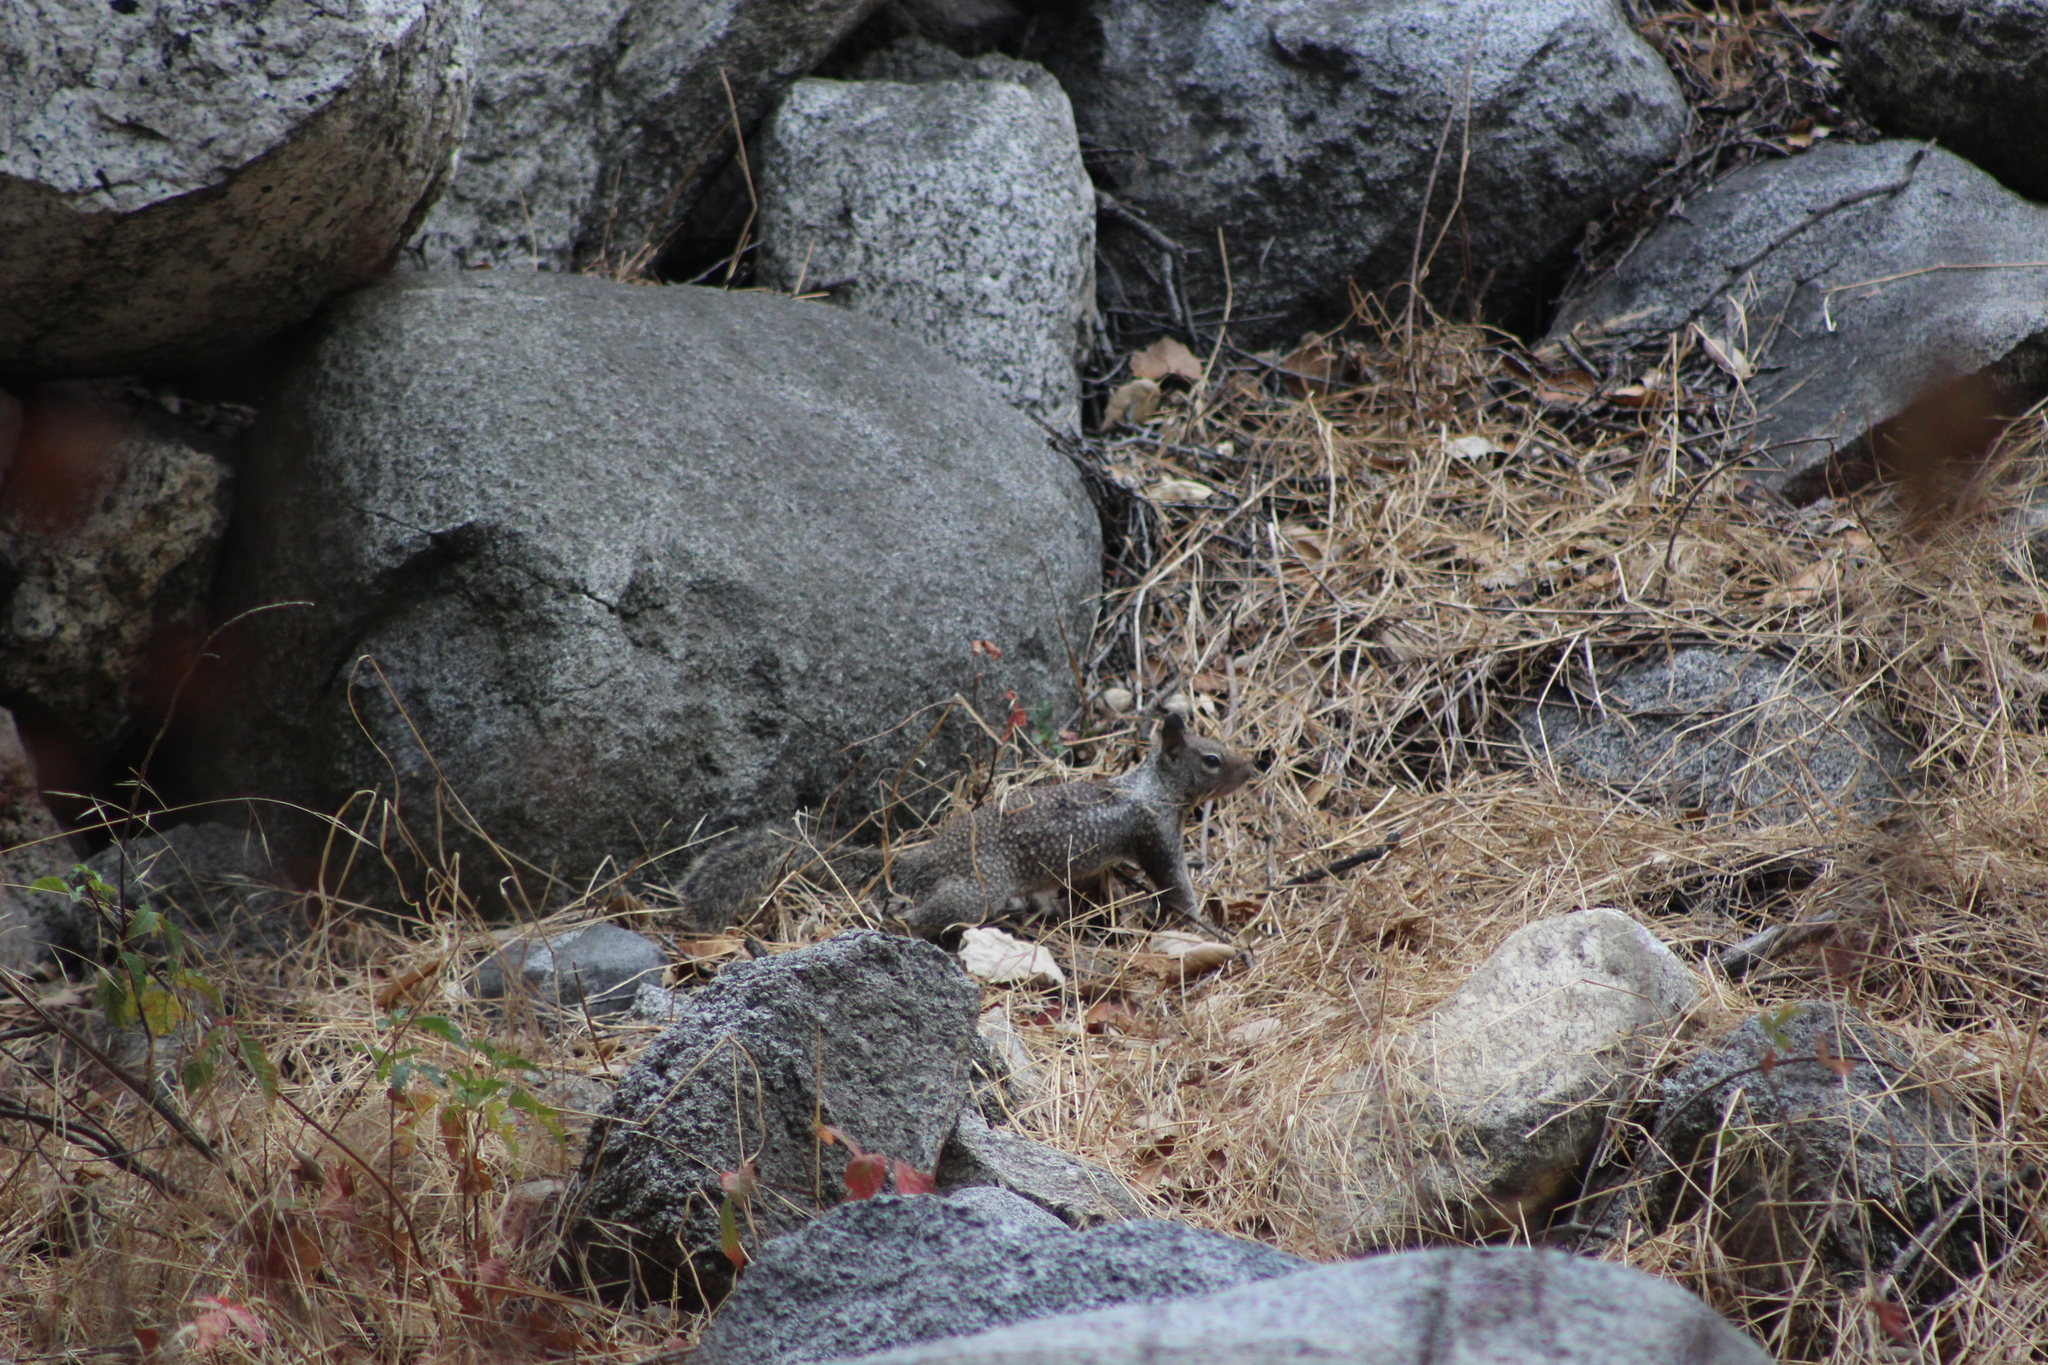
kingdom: Animalia
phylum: Chordata
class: Mammalia
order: Rodentia
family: Sciuridae
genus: Otospermophilus
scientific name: Otospermophilus beecheyi
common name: California ground squirrel
